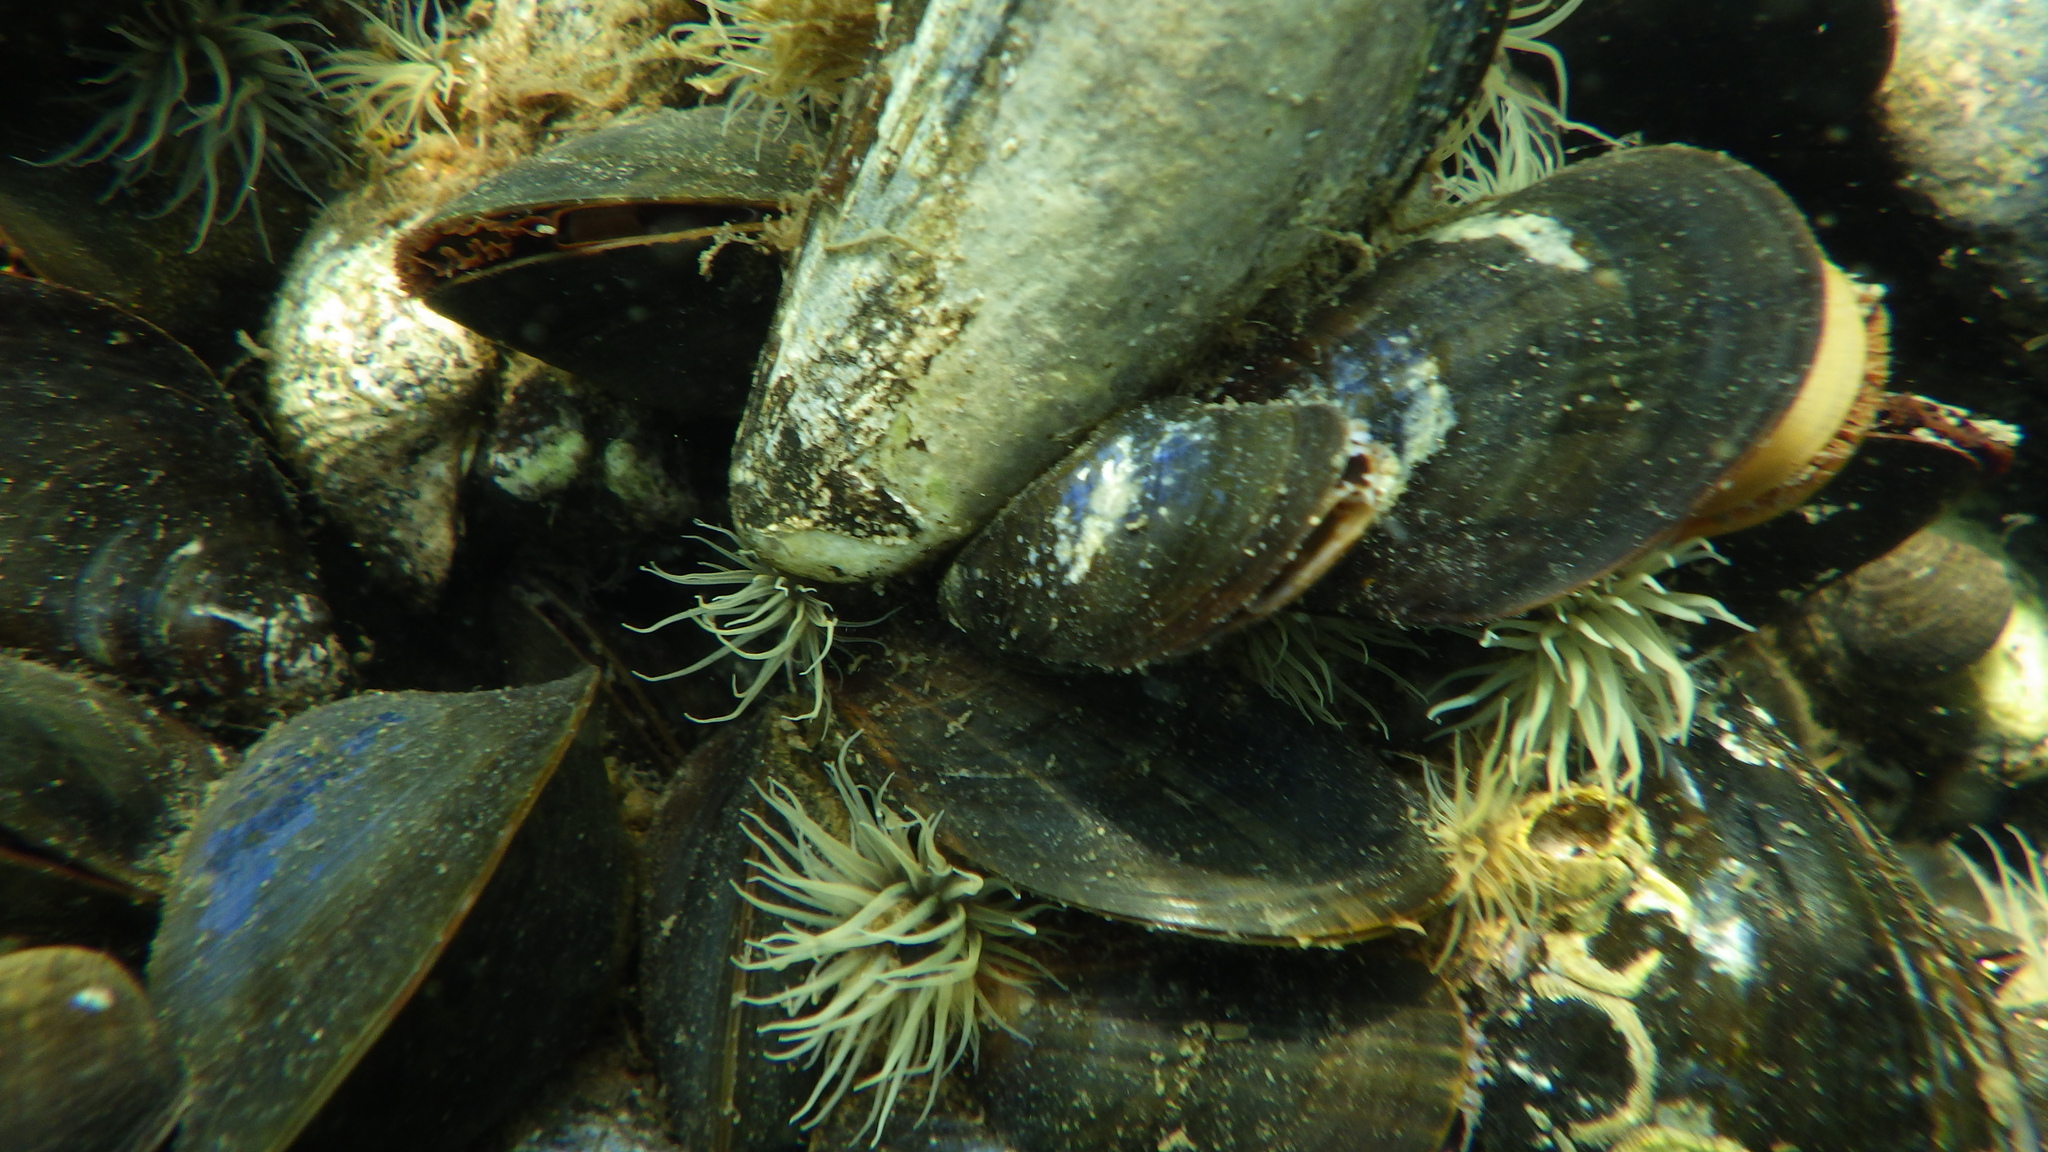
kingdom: Animalia
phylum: Cnidaria
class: Anthozoa
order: Actiniaria
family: Diadumenidae
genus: Diadumene
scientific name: Diadumene lineata
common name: Orange-striped anemone
